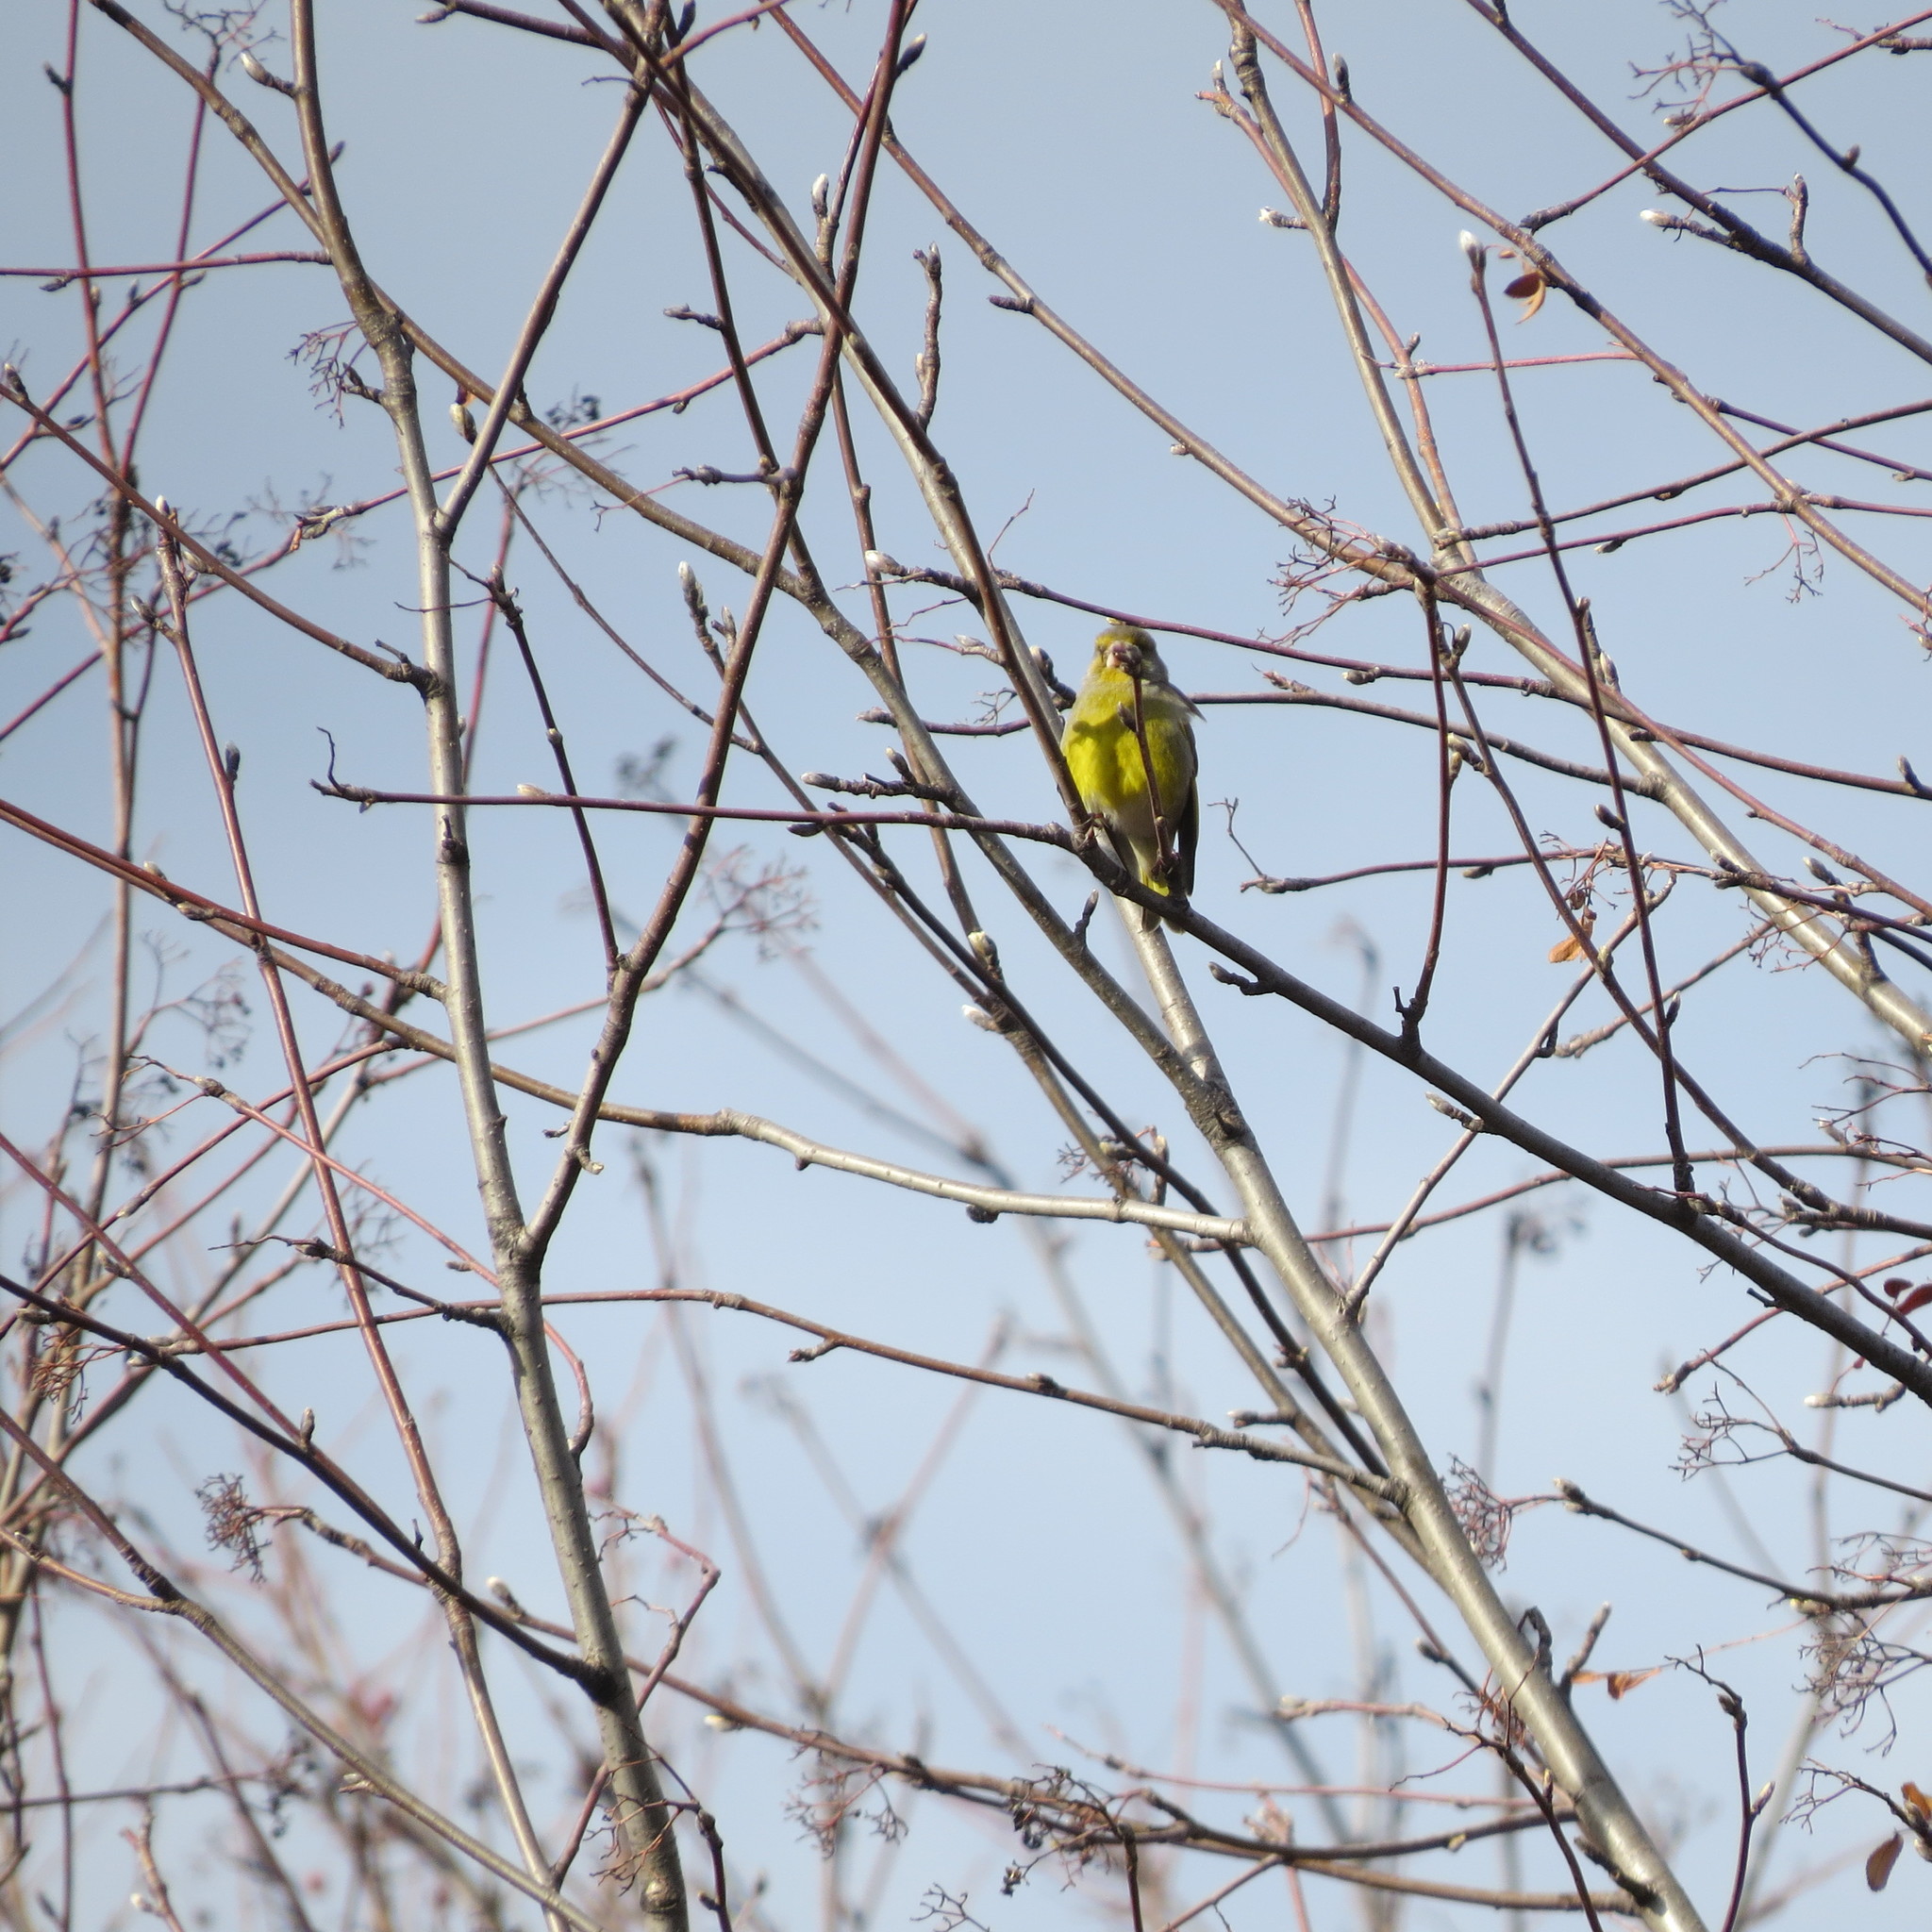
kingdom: Plantae
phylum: Tracheophyta
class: Liliopsida
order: Poales
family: Poaceae
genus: Chloris
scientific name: Chloris chloris
